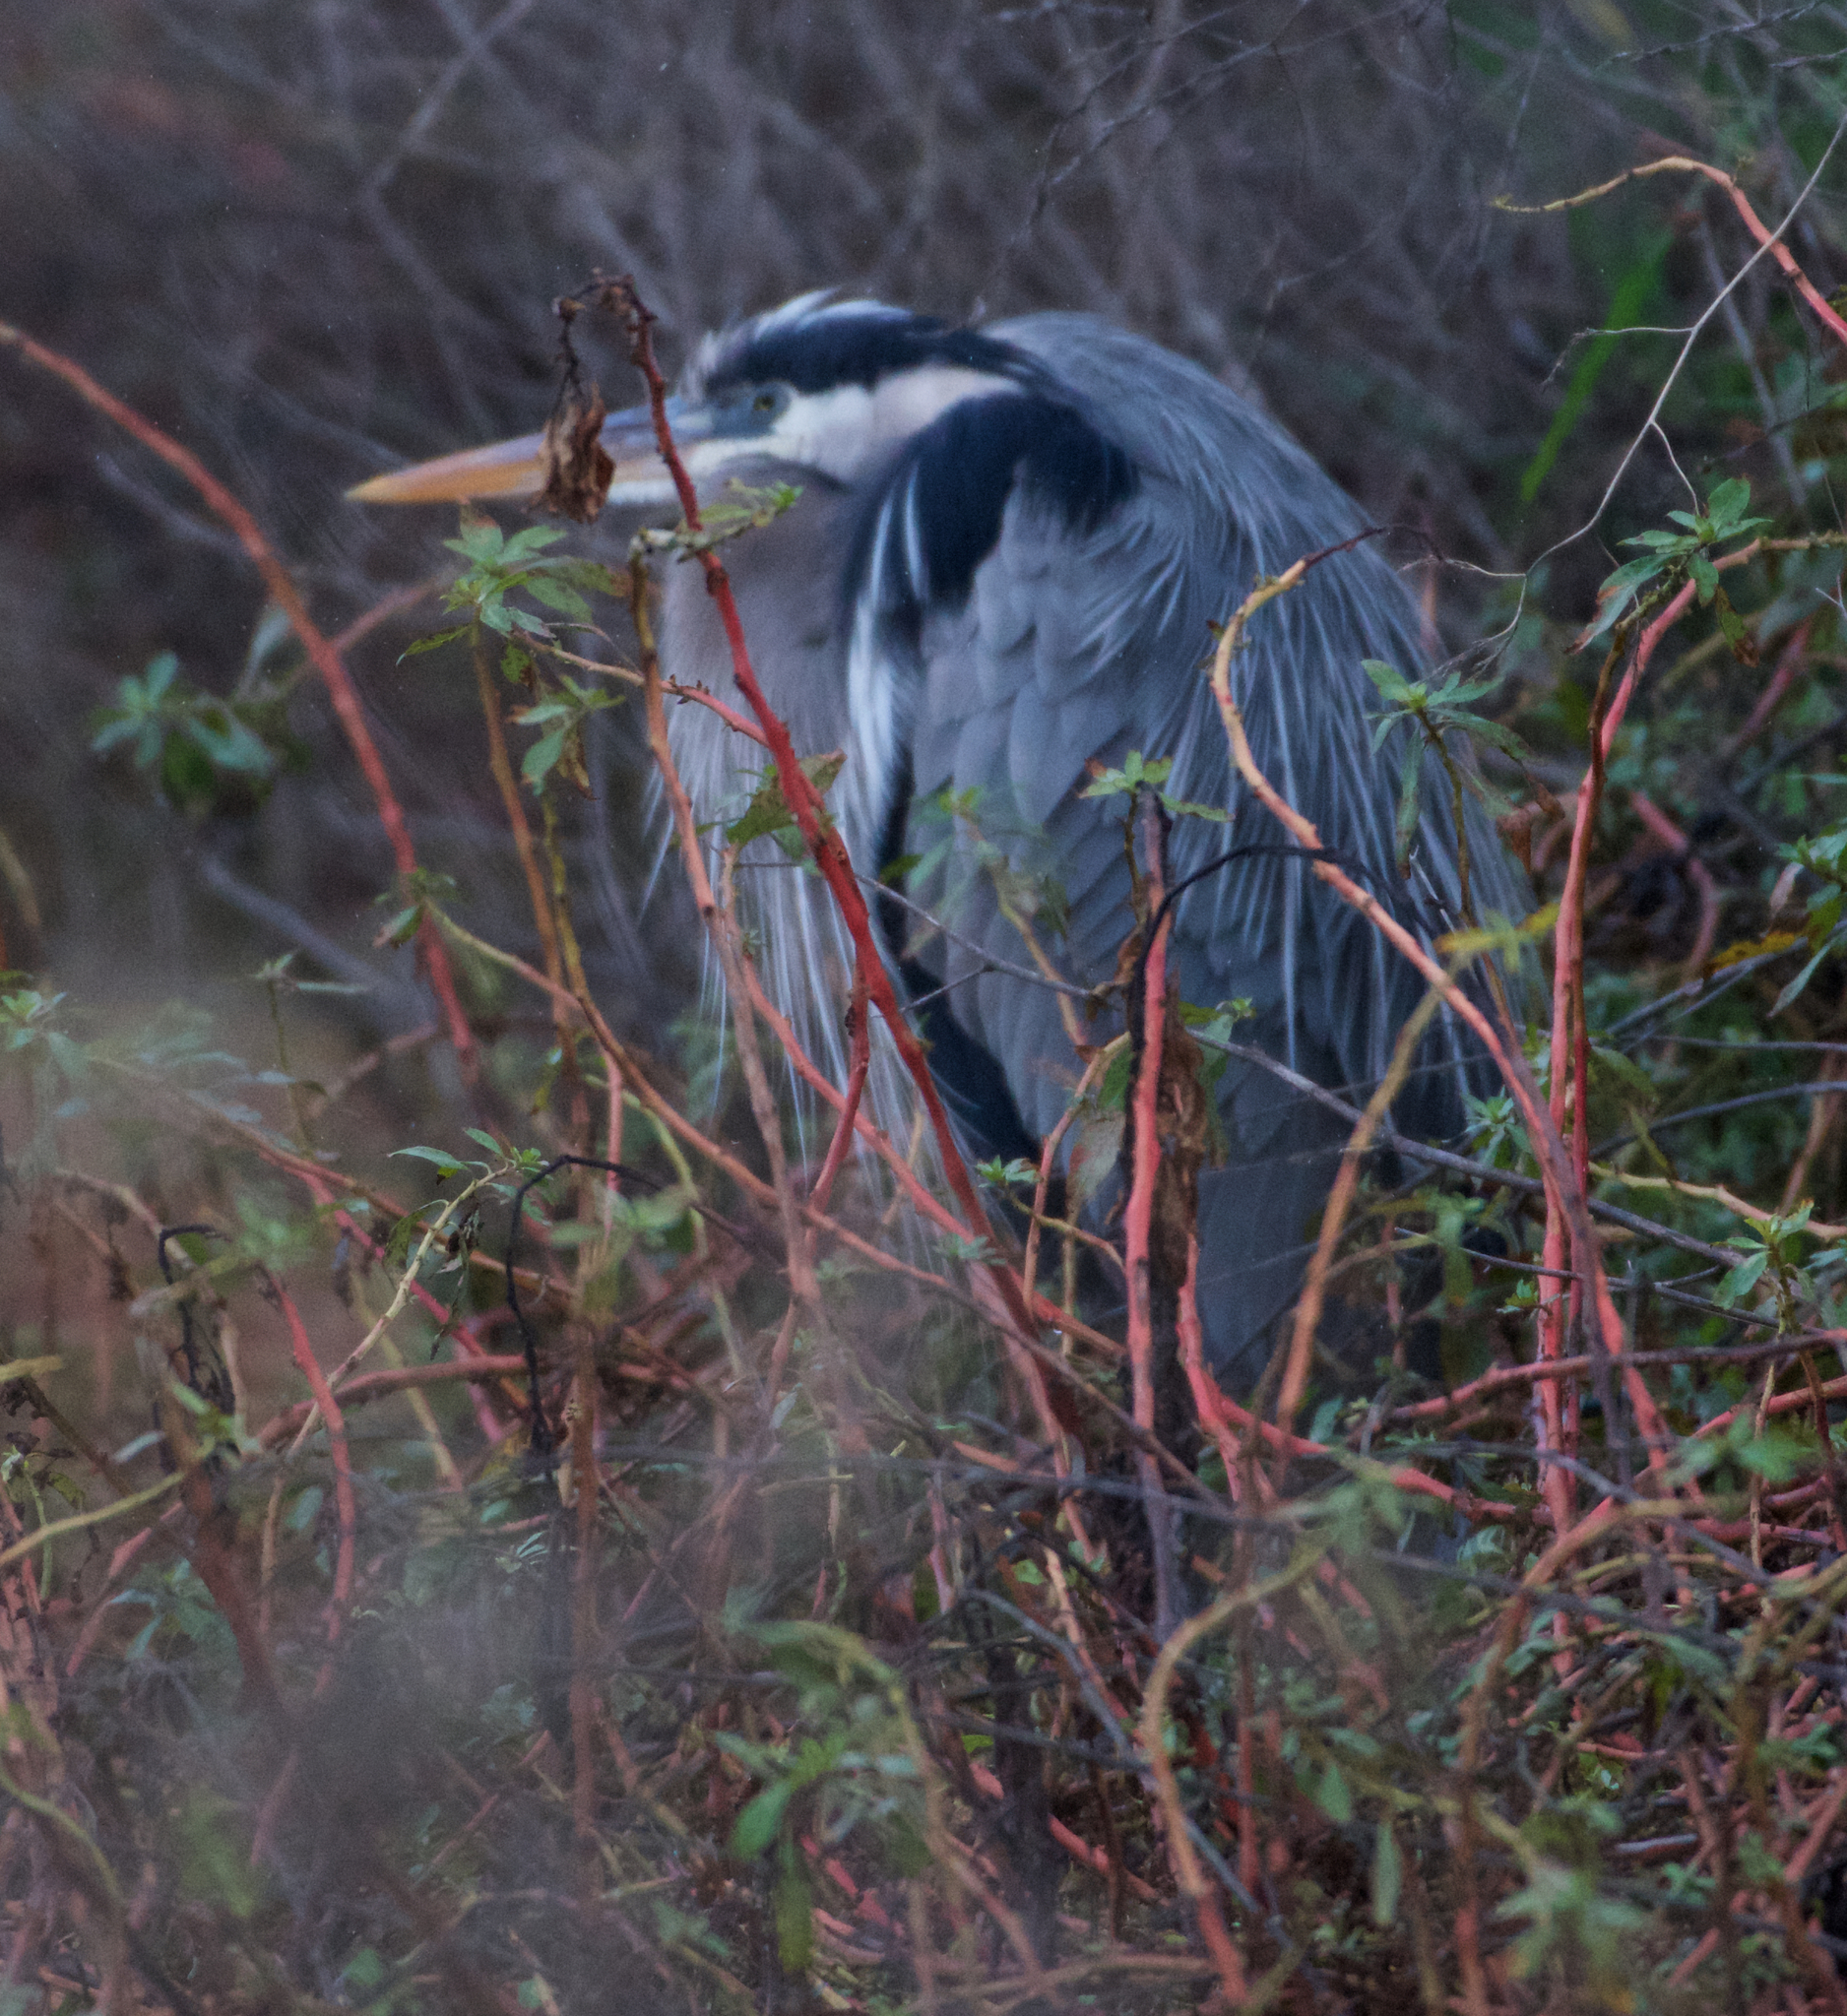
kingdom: Animalia
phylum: Chordata
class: Aves
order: Pelecaniformes
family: Ardeidae
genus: Ardea
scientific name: Ardea herodias
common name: Great blue heron
